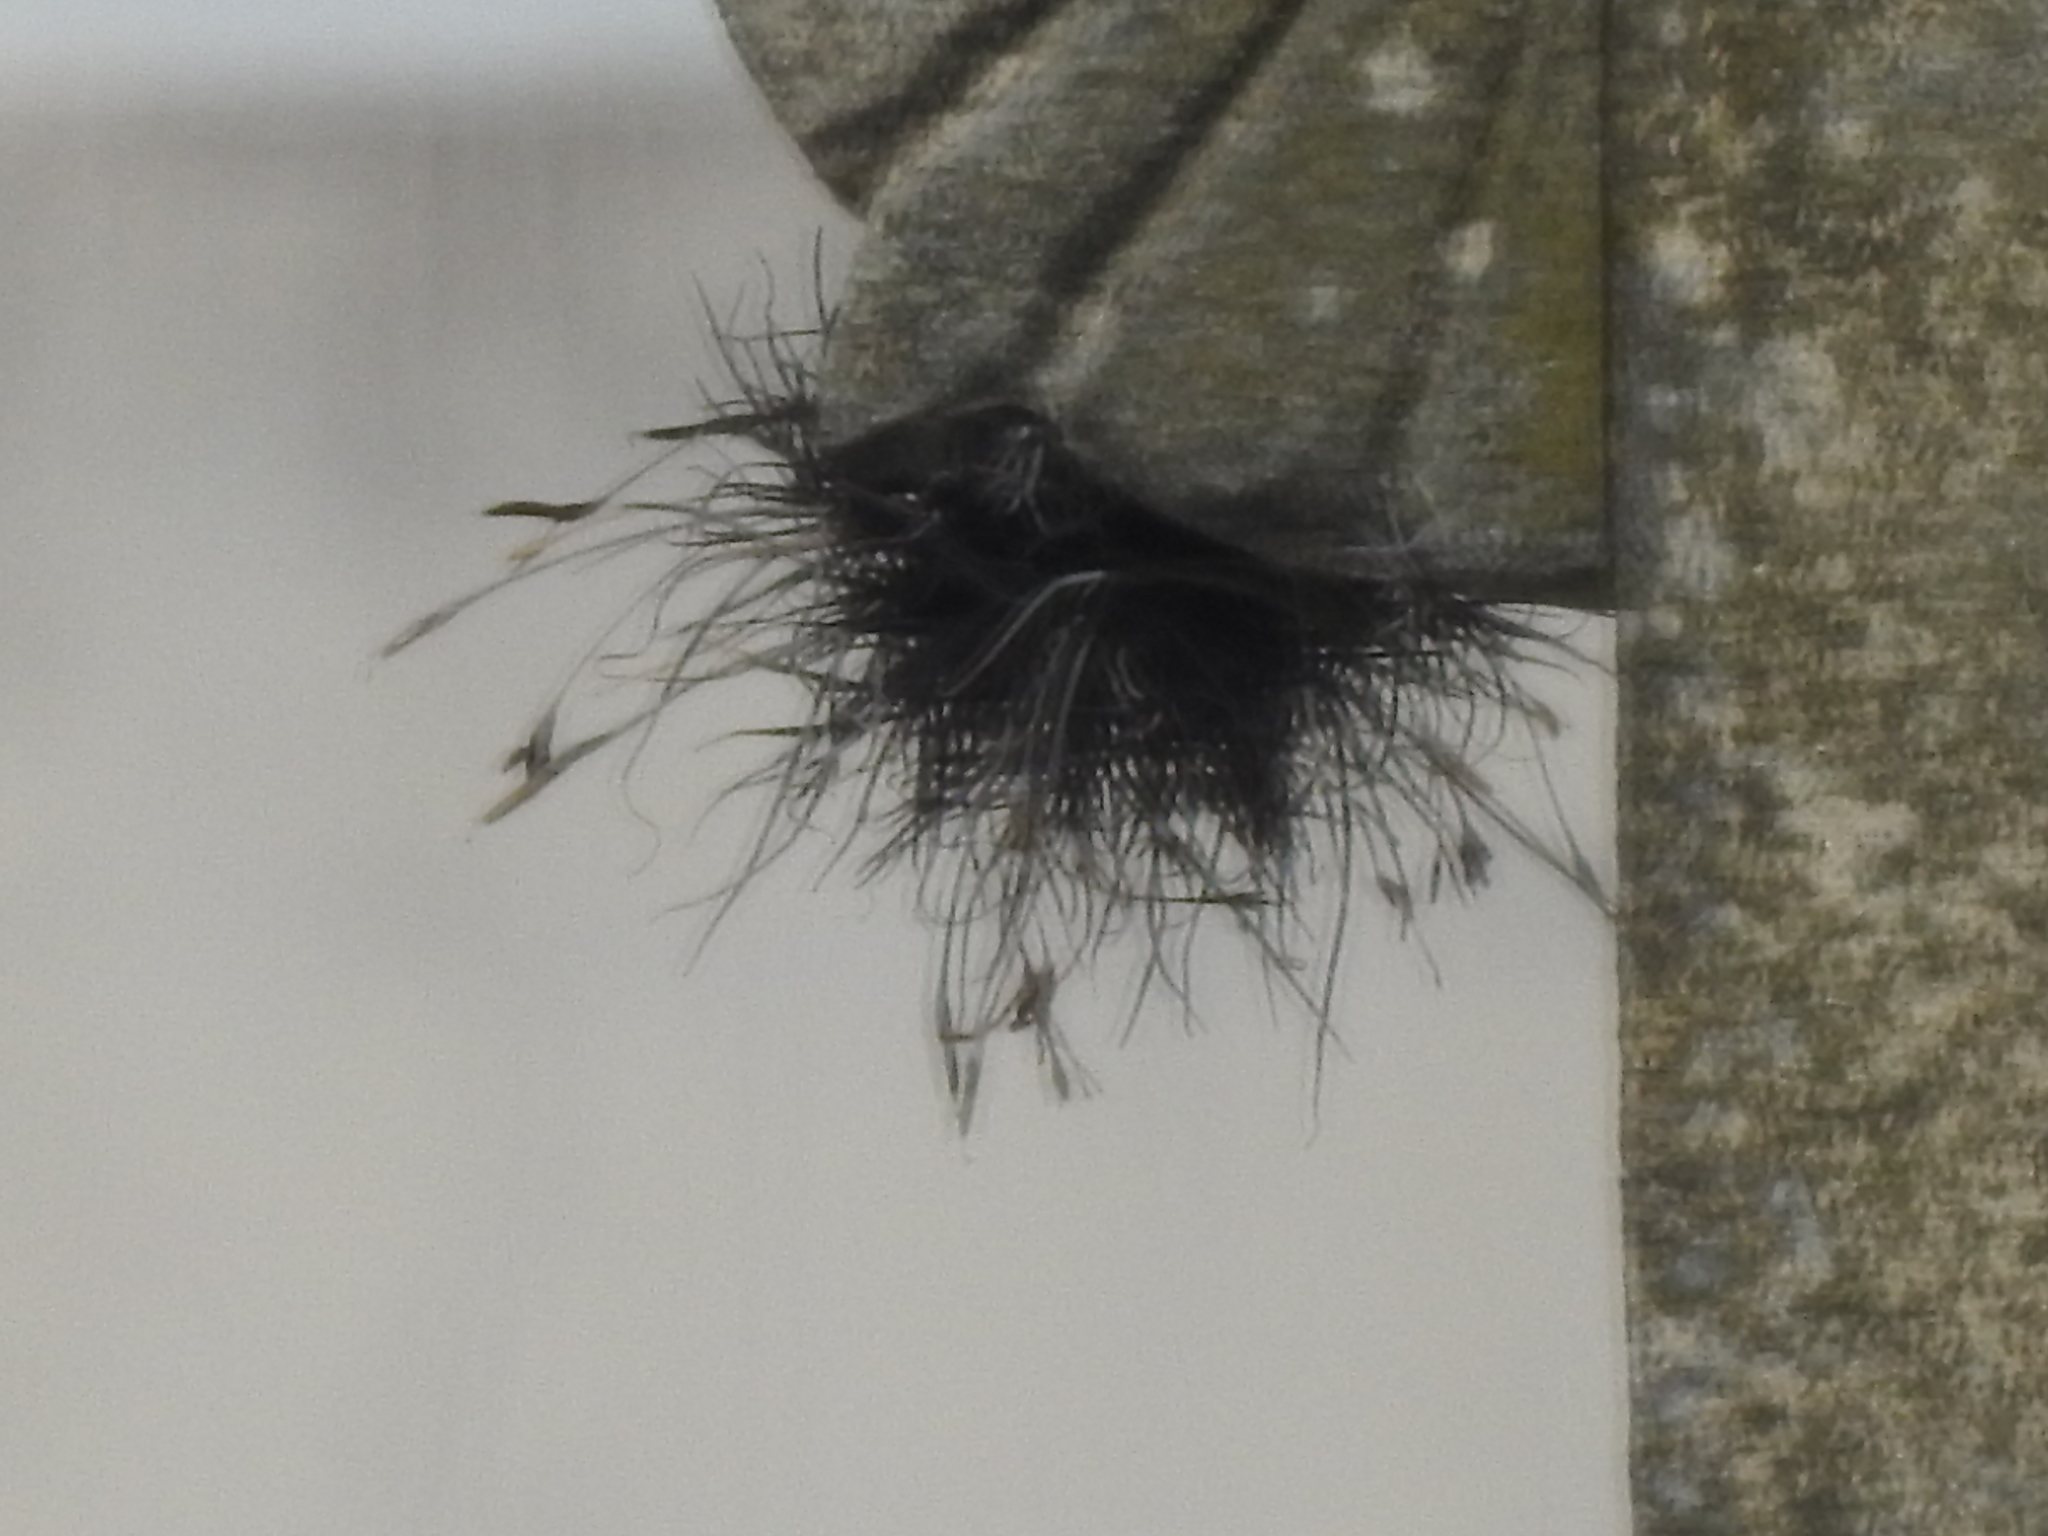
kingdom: Plantae
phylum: Tracheophyta
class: Liliopsida
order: Poales
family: Bromeliaceae
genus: Tillandsia
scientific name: Tillandsia recurvata
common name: Small ballmoss
